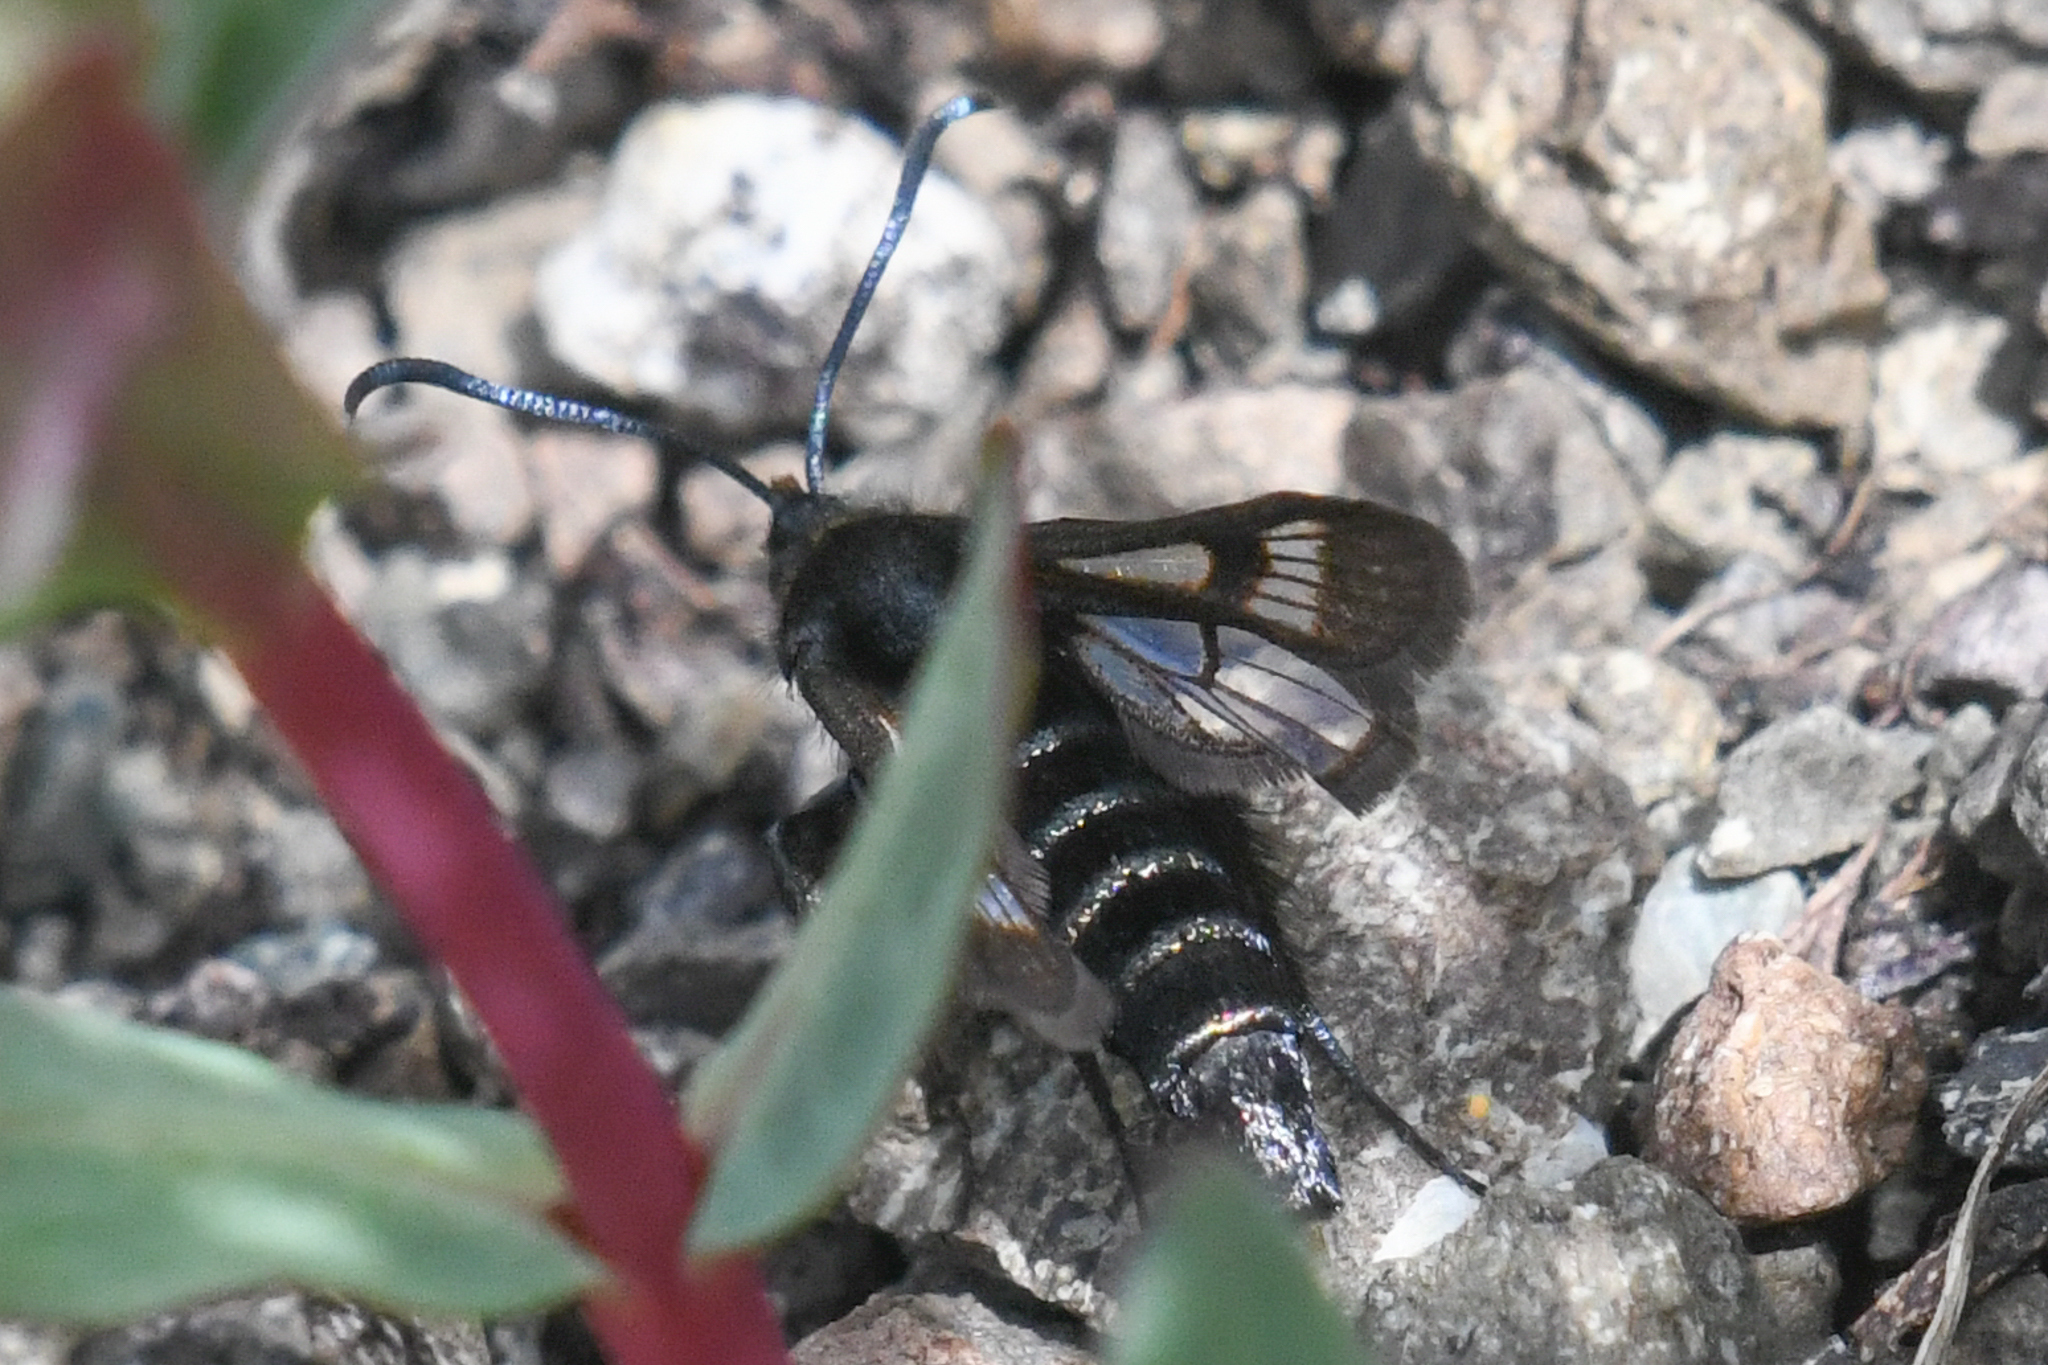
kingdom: Animalia
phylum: Arthropoda
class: Insecta
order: Lepidoptera
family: Sesiidae
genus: Albuna
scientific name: Albuna pyramidalis
